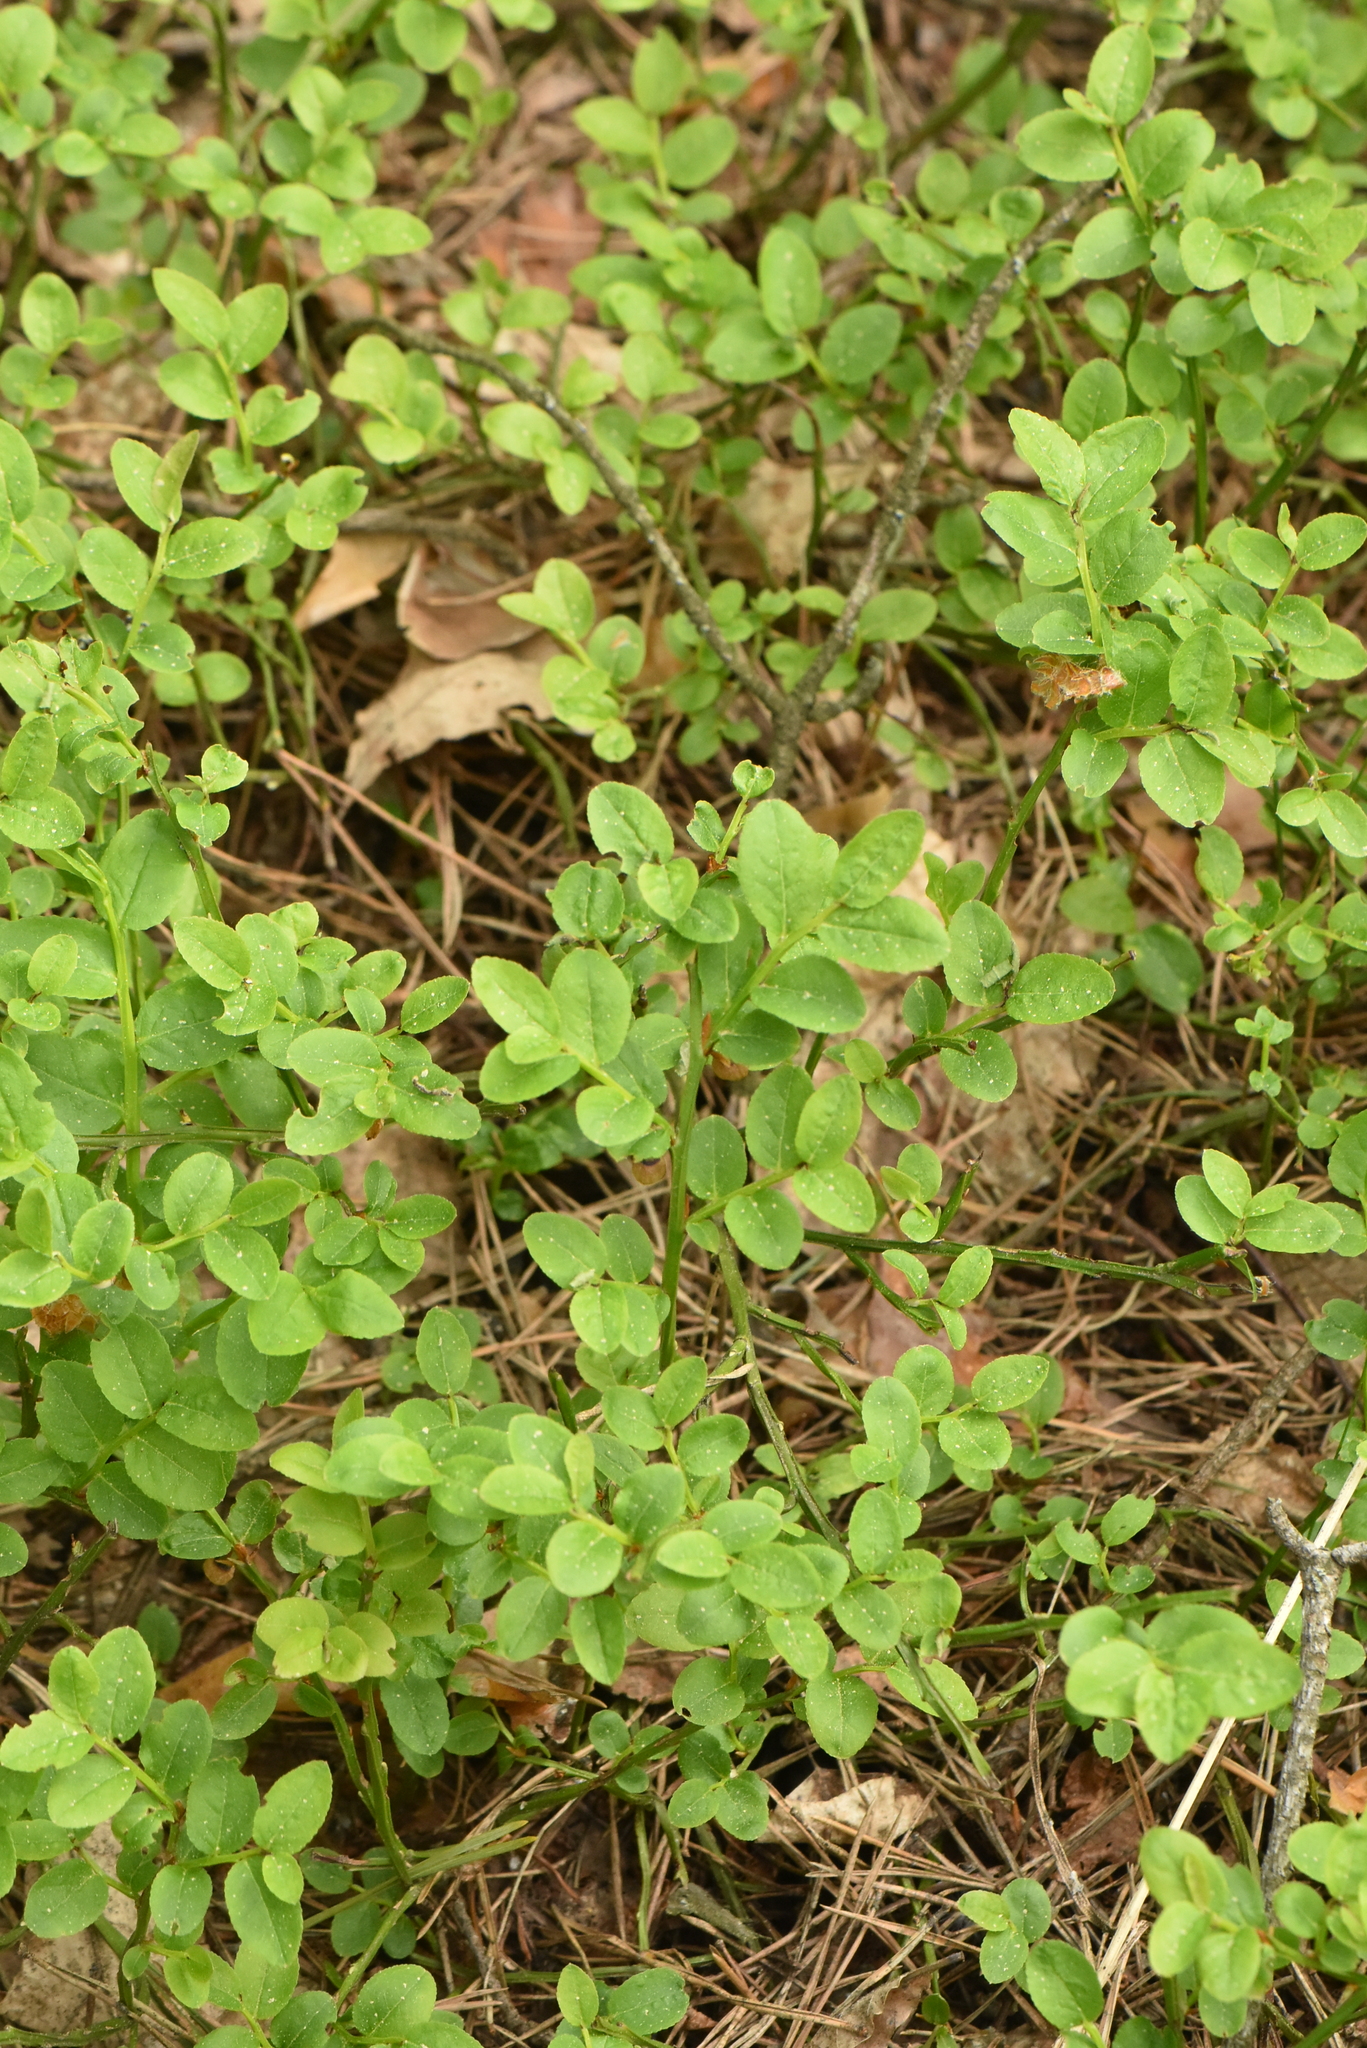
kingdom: Plantae
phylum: Tracheophyta
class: Magnoliopsida
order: Ericales
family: Ericaceae
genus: Vaccinium
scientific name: Vaccinium myrtillus
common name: Bilberry
